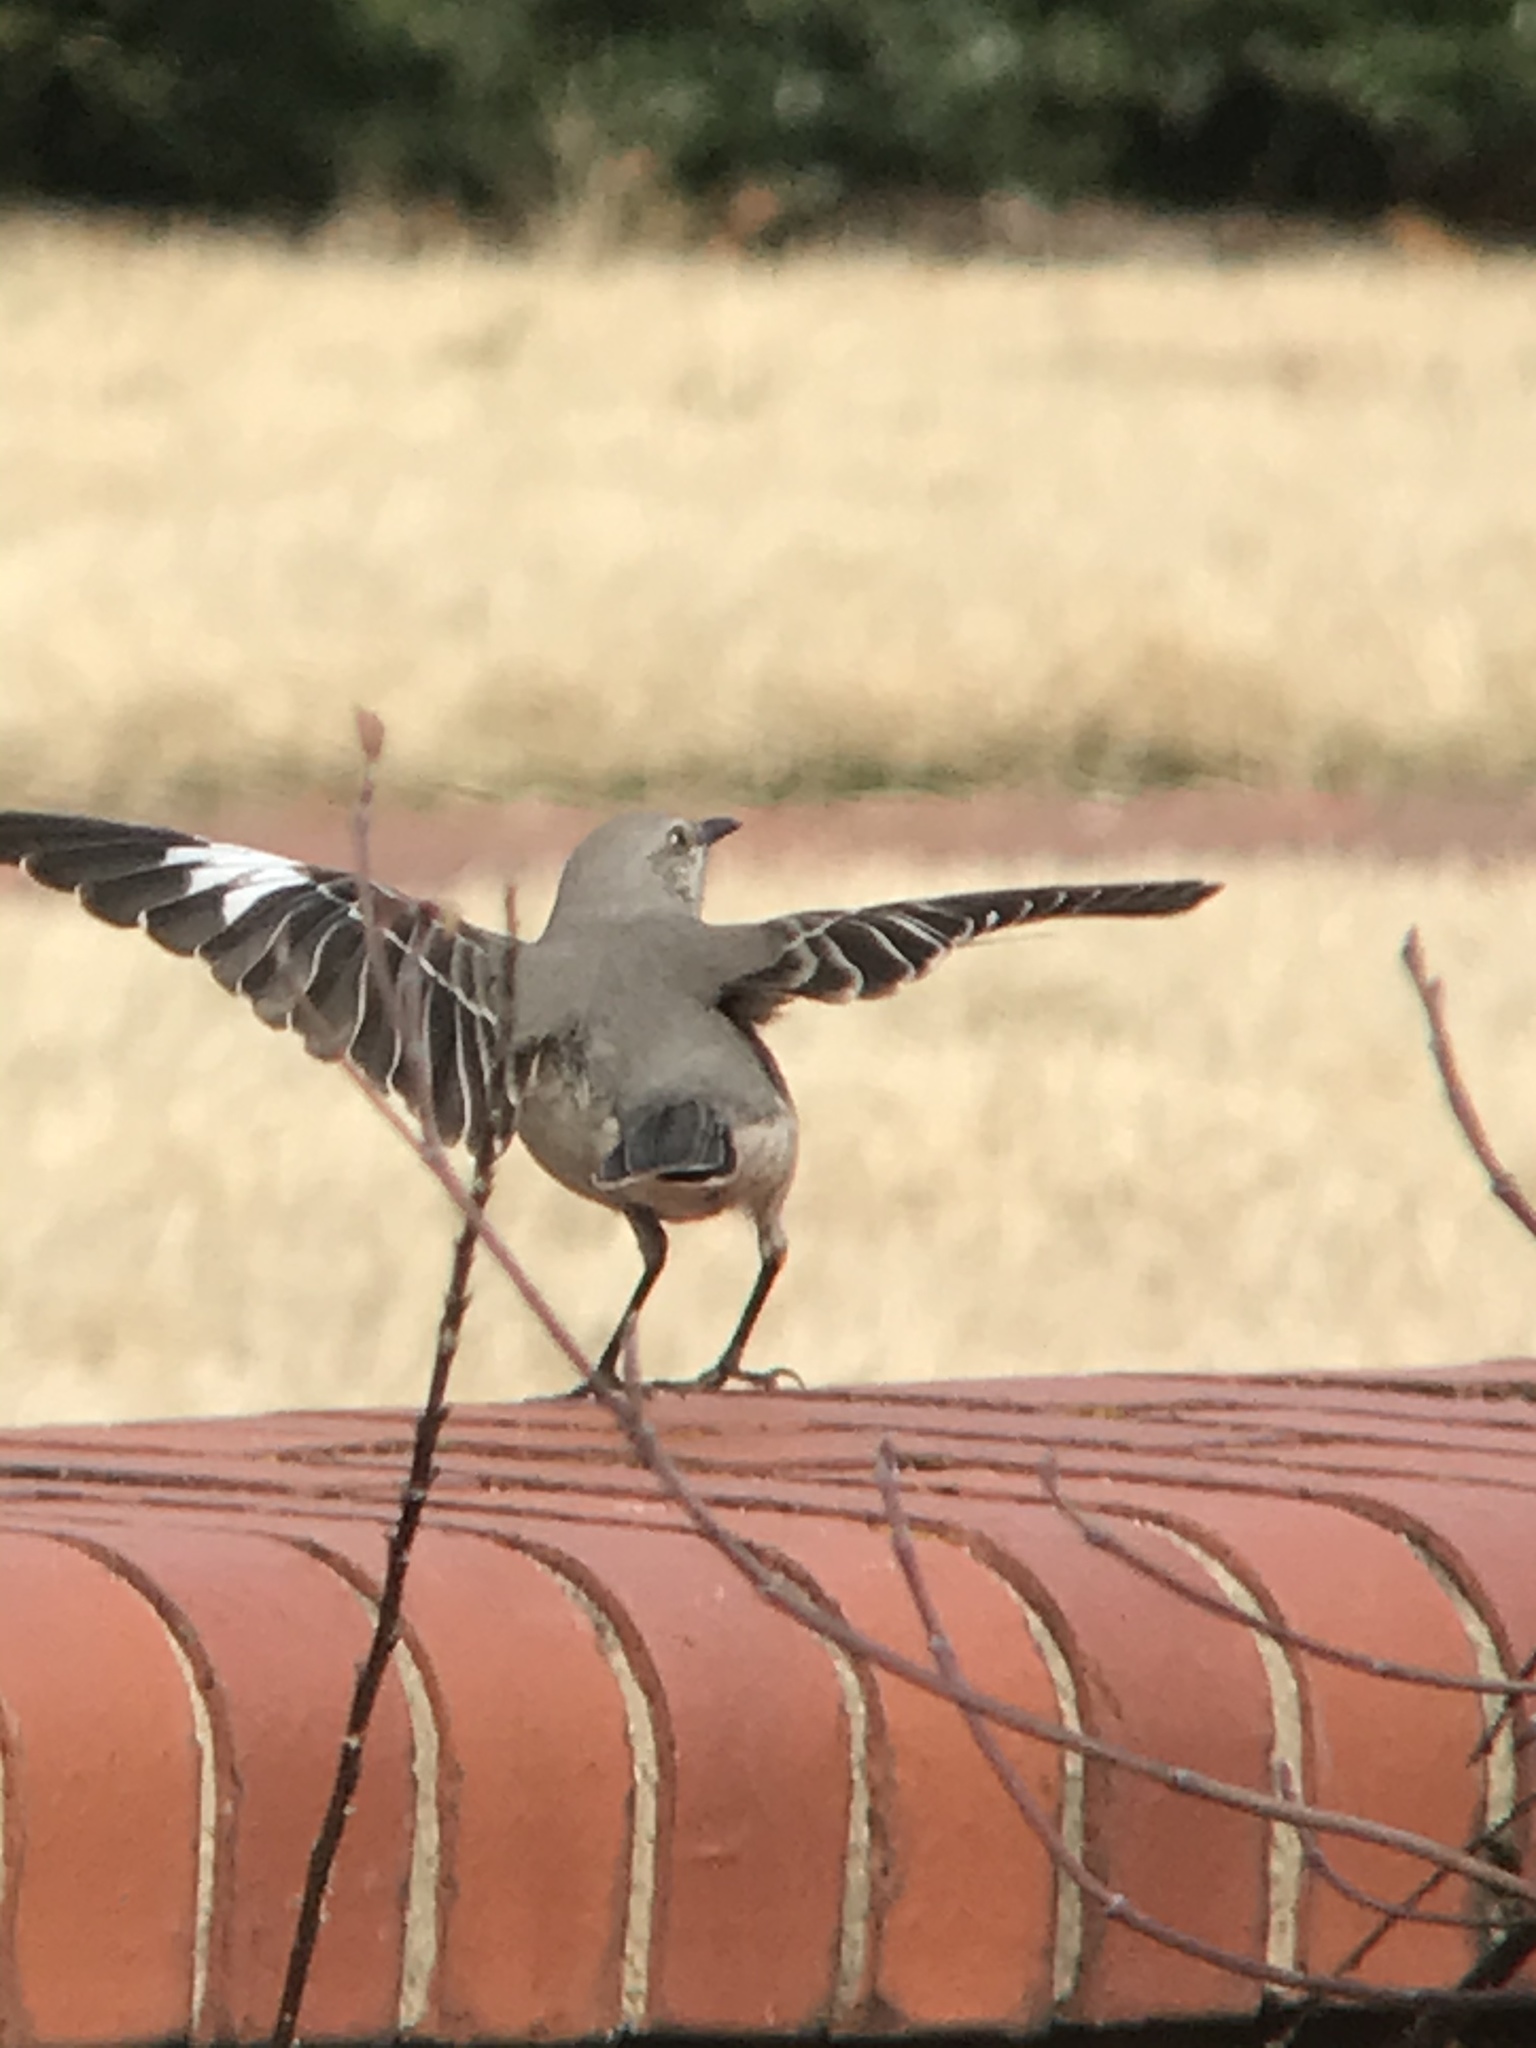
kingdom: Animalia
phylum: Chordata
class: Aves
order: Passeriformes
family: Mimidae
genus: Mimus
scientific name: Mimus polyglottos
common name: Northern mockingbird
